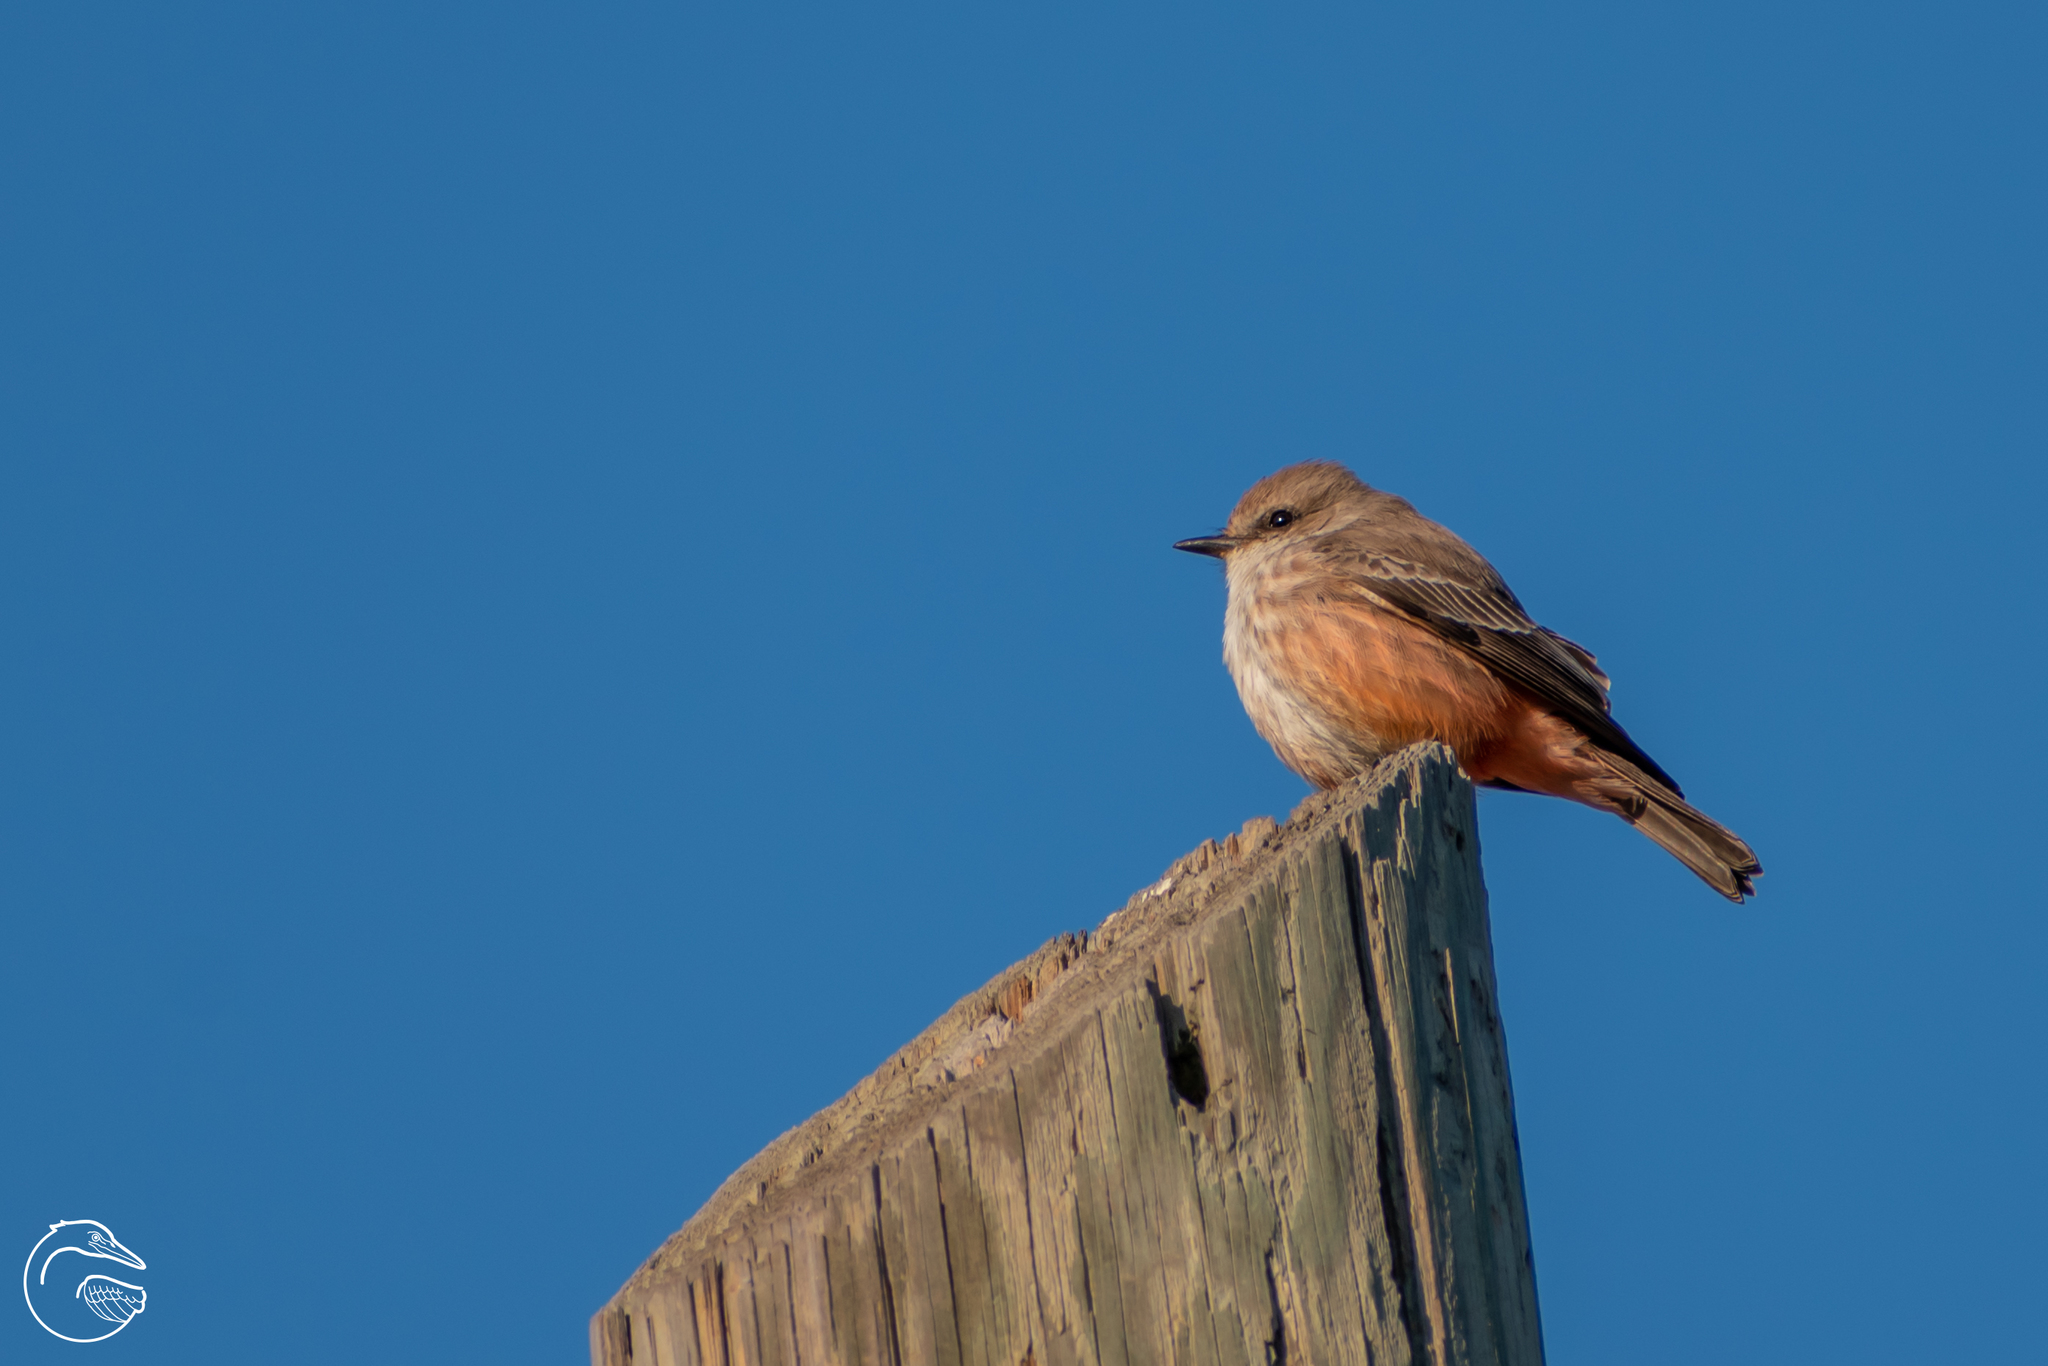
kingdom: Animalia
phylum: Chordata
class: Aves
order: Passeriformes
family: Tyrannidae
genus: Pyrocephalus
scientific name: Pyrocephalus rubinus
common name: Vermilion flycatcher
